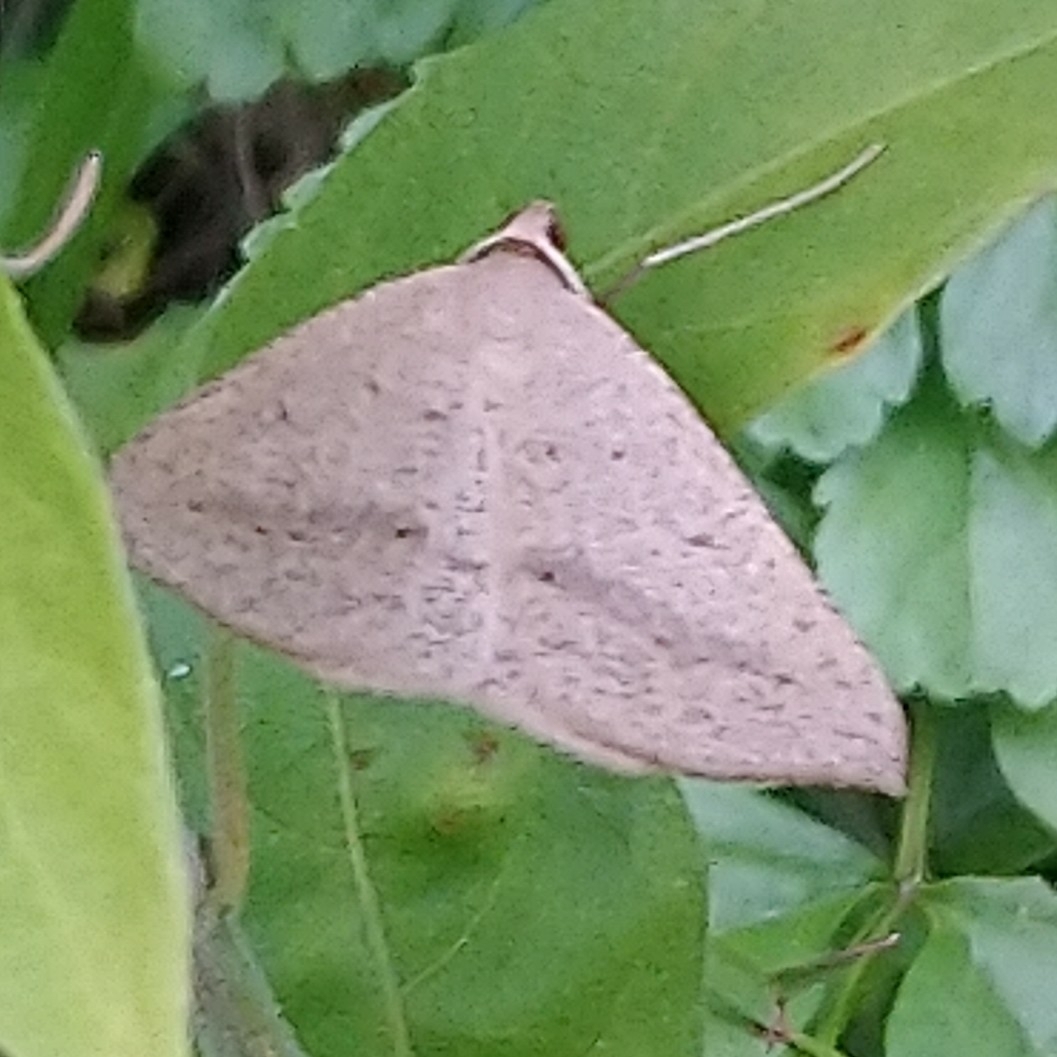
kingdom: Animalia
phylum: Arthropoda
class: Insecta
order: Lepidoptera
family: Geometridae
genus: Palaeaspilates
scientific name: Palaeaspilates inoffensa
